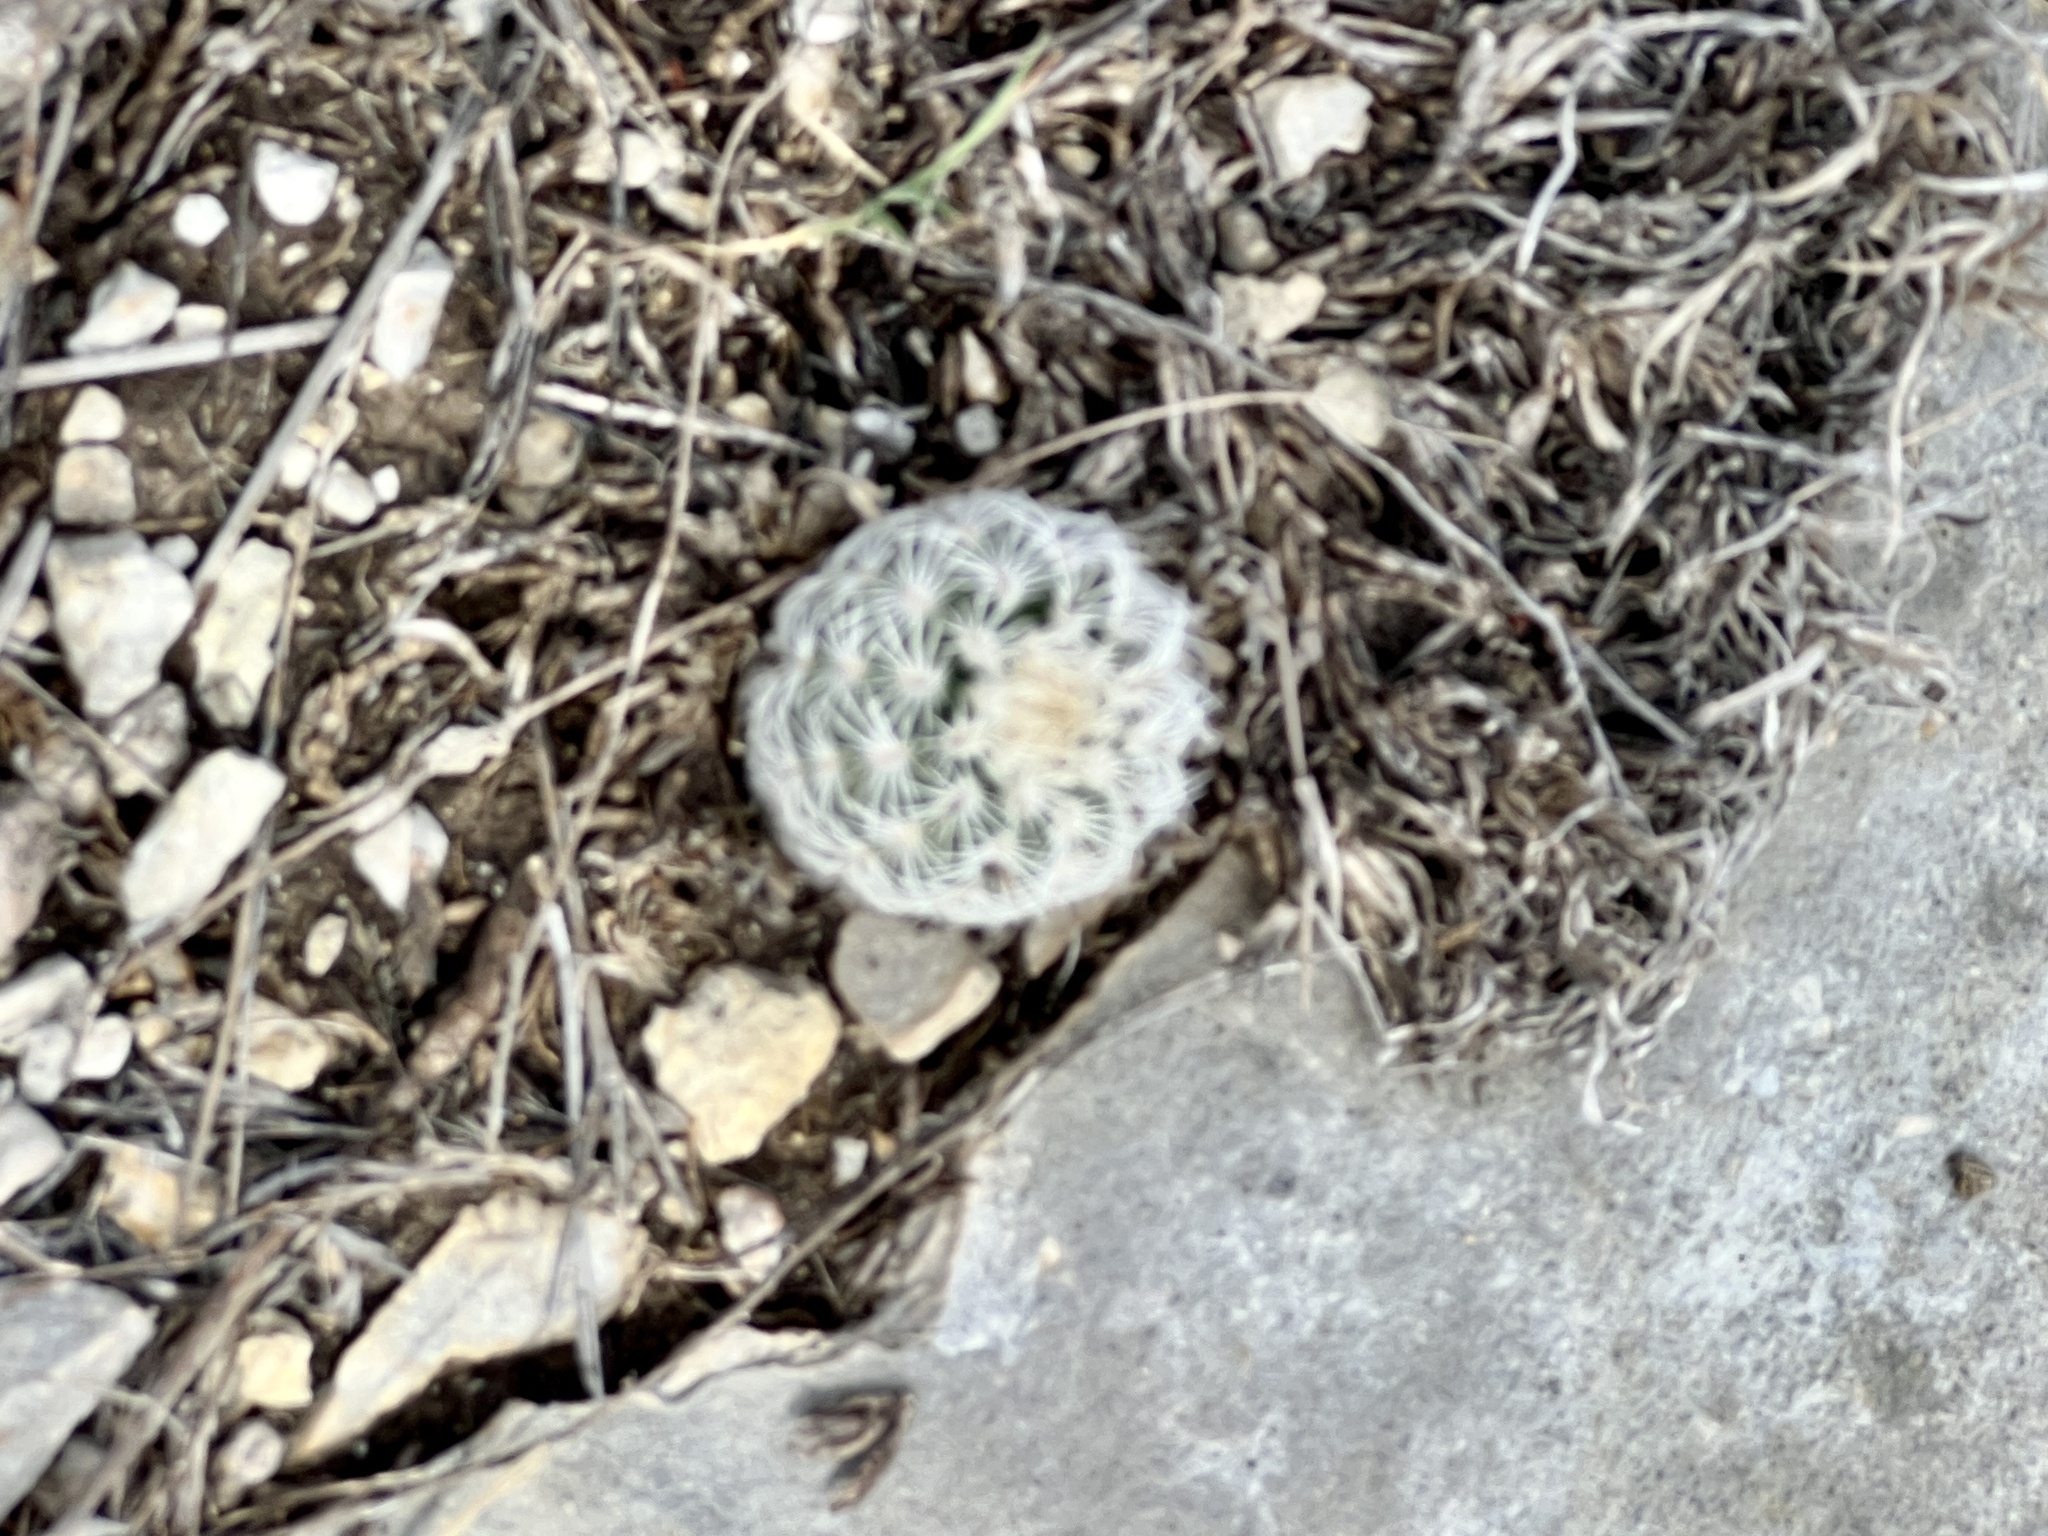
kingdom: Plantae
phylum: Tracheophyta
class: Magnoliopsida
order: Caryophyllales
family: Cactaceae
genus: Echinocereus
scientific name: Echinocereus reichenbachii
